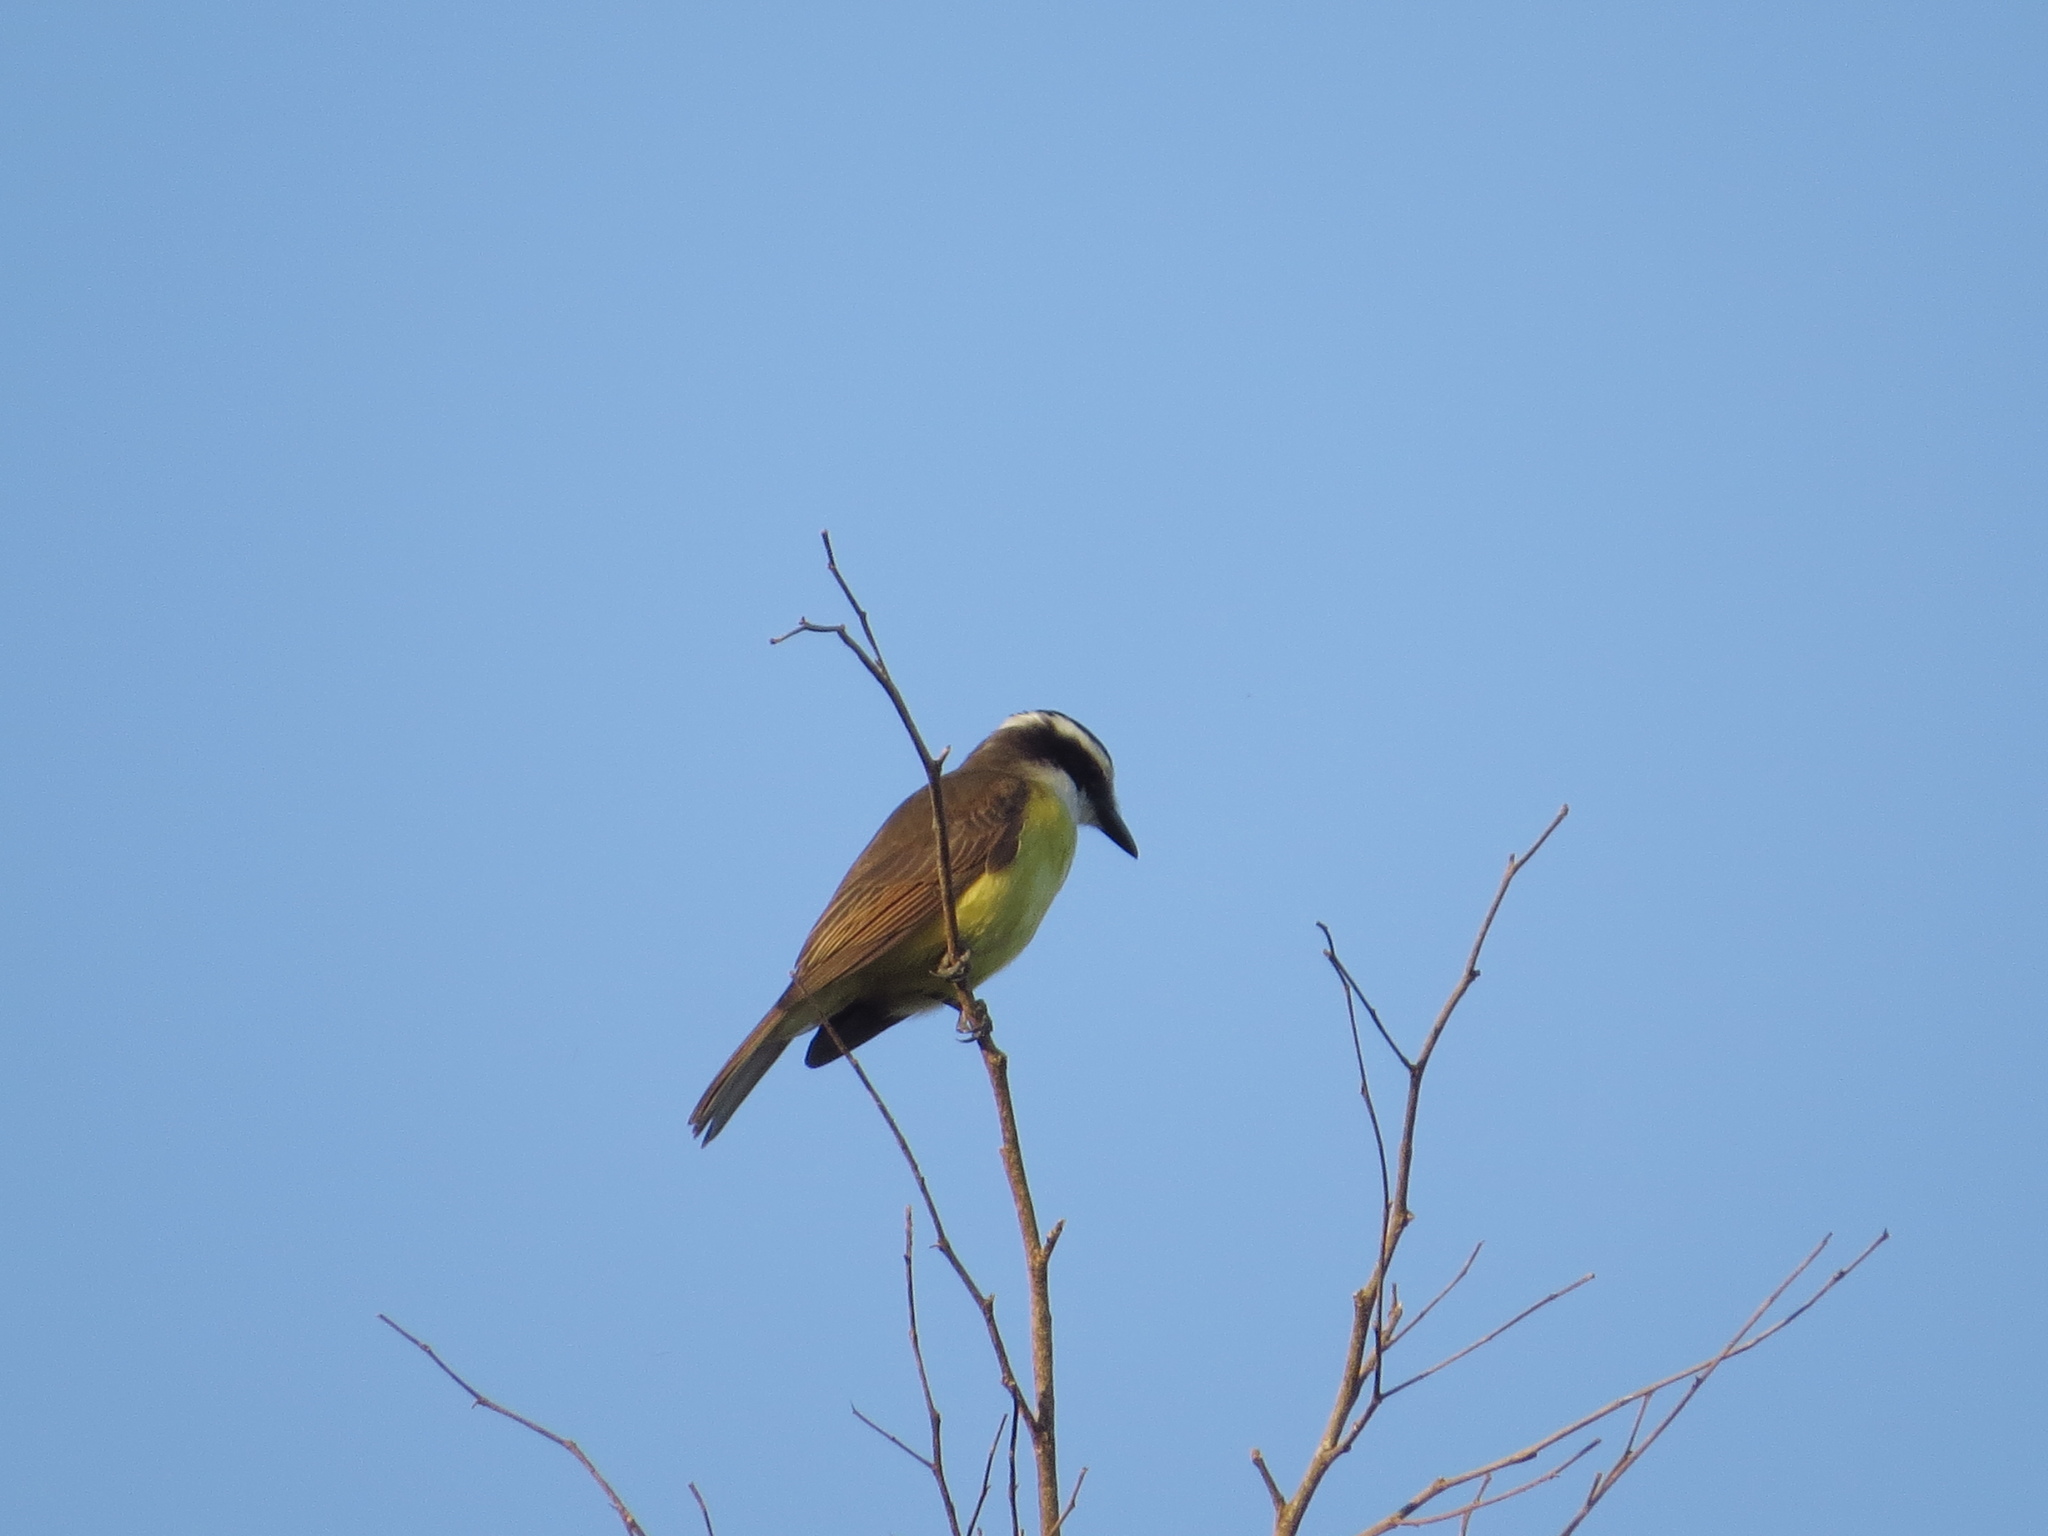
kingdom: Animalia
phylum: Chordata
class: Aves
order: Passeriformes
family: Tyrannidae
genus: Pitangus
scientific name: Pitangus sulphuratus
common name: Great kiskadee
